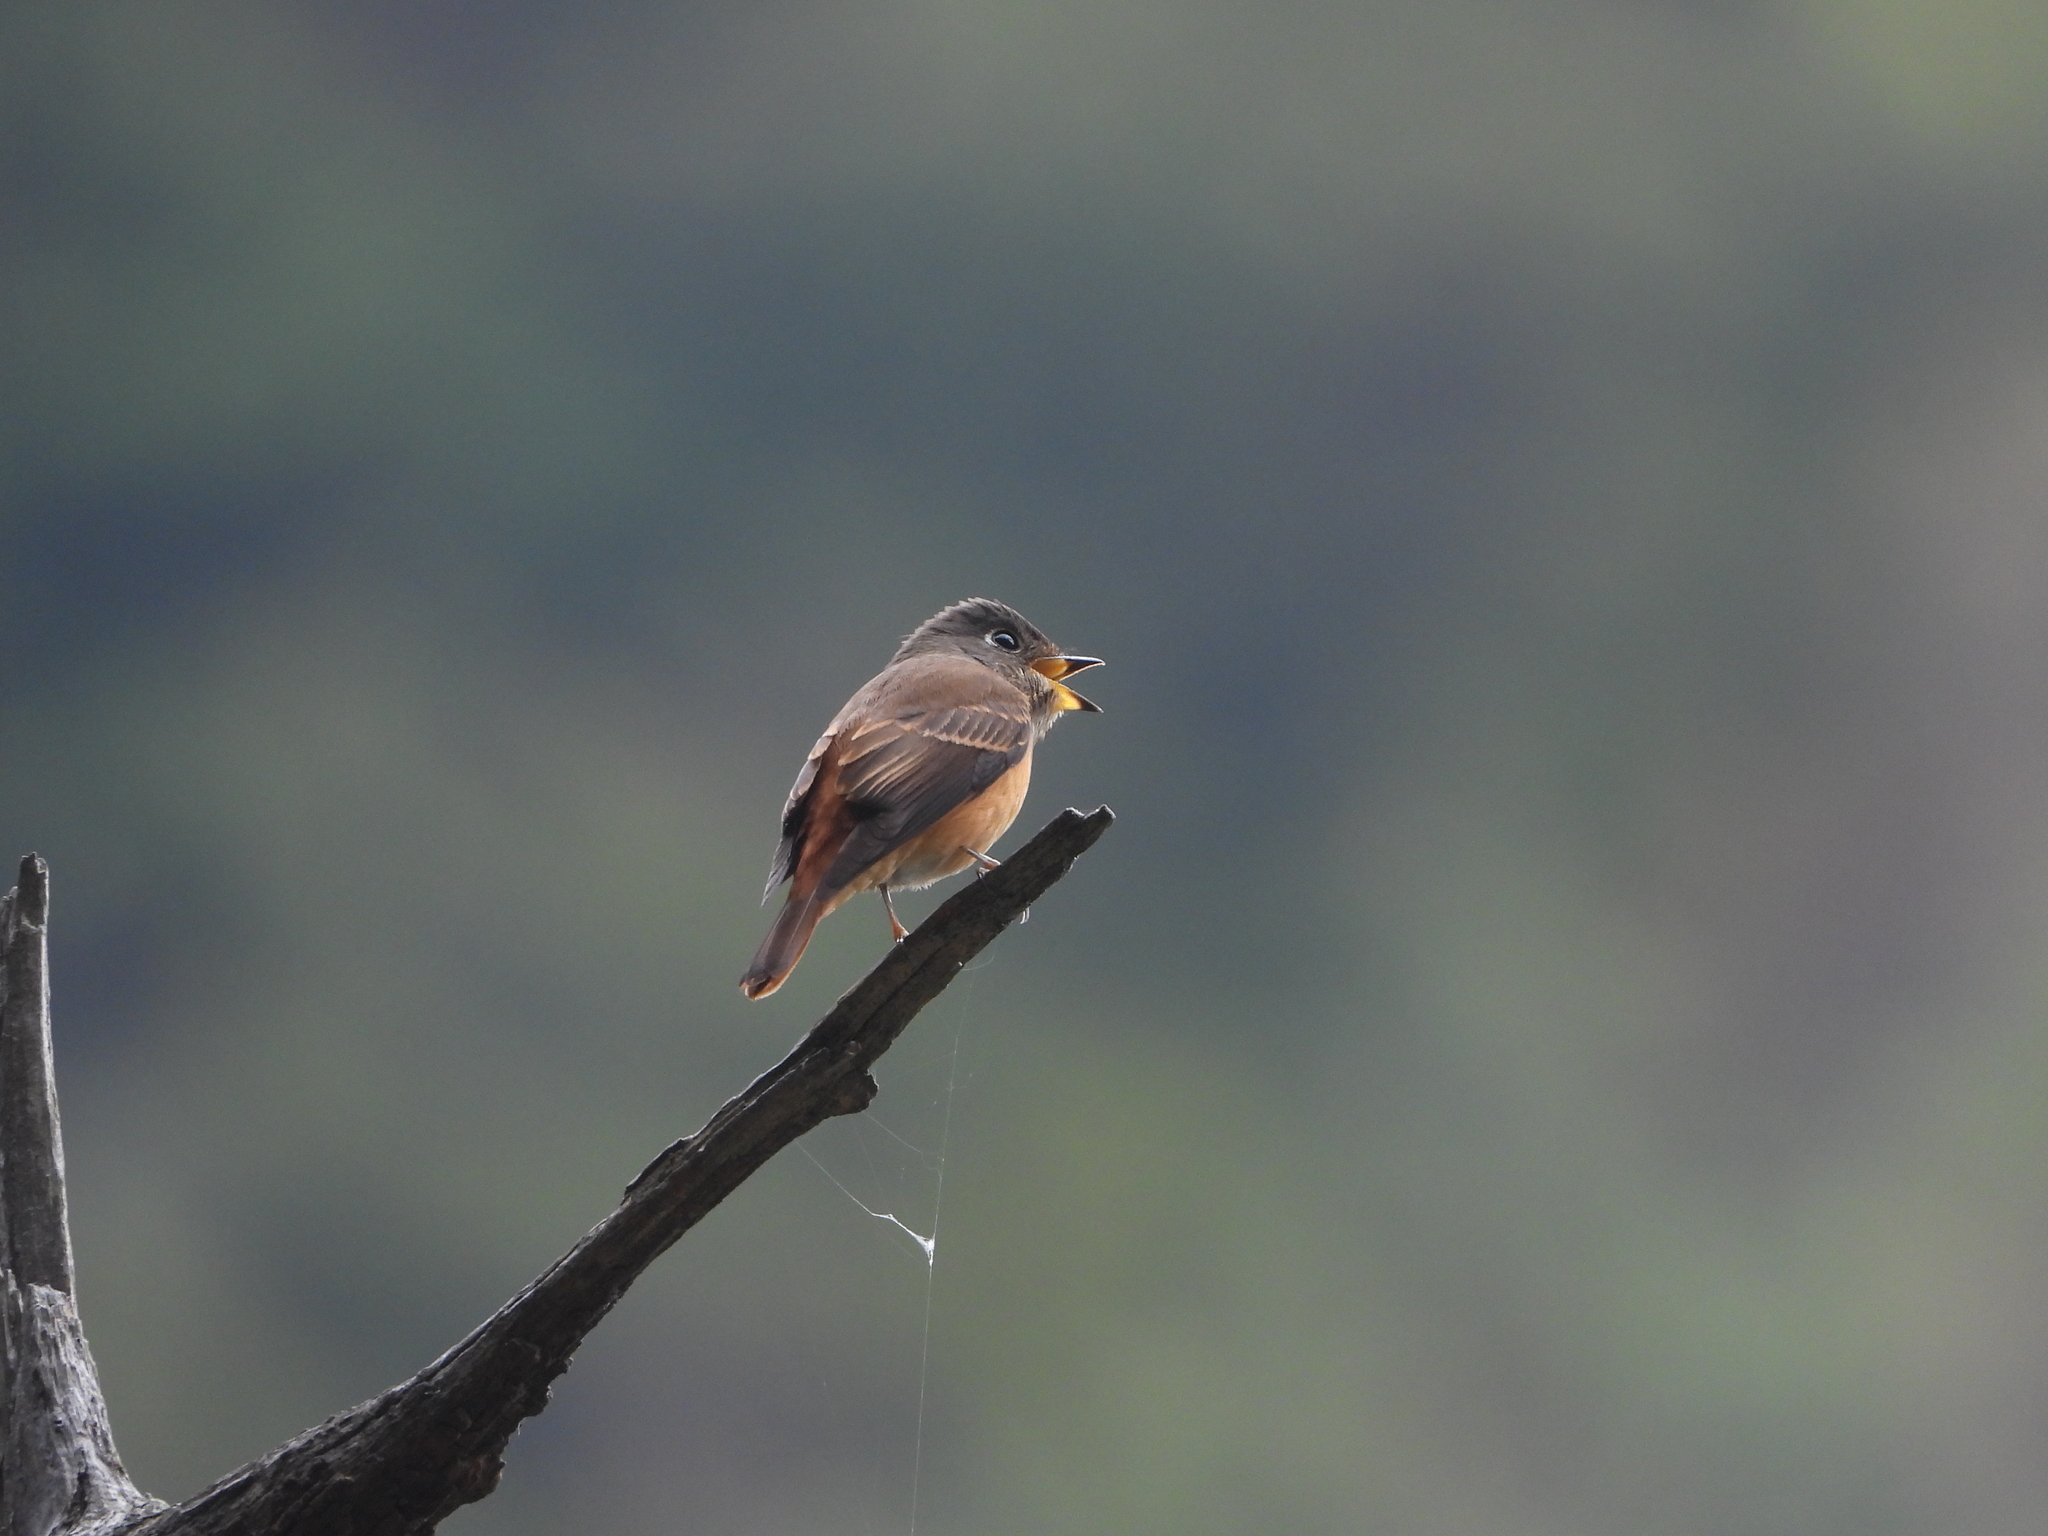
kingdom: Animalia
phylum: Chordata
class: Aves
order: Passeriformes
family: Muscicapidae
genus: Muscicapa
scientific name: Muscicapa ferruginea
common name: Ferruginous flycatcher
